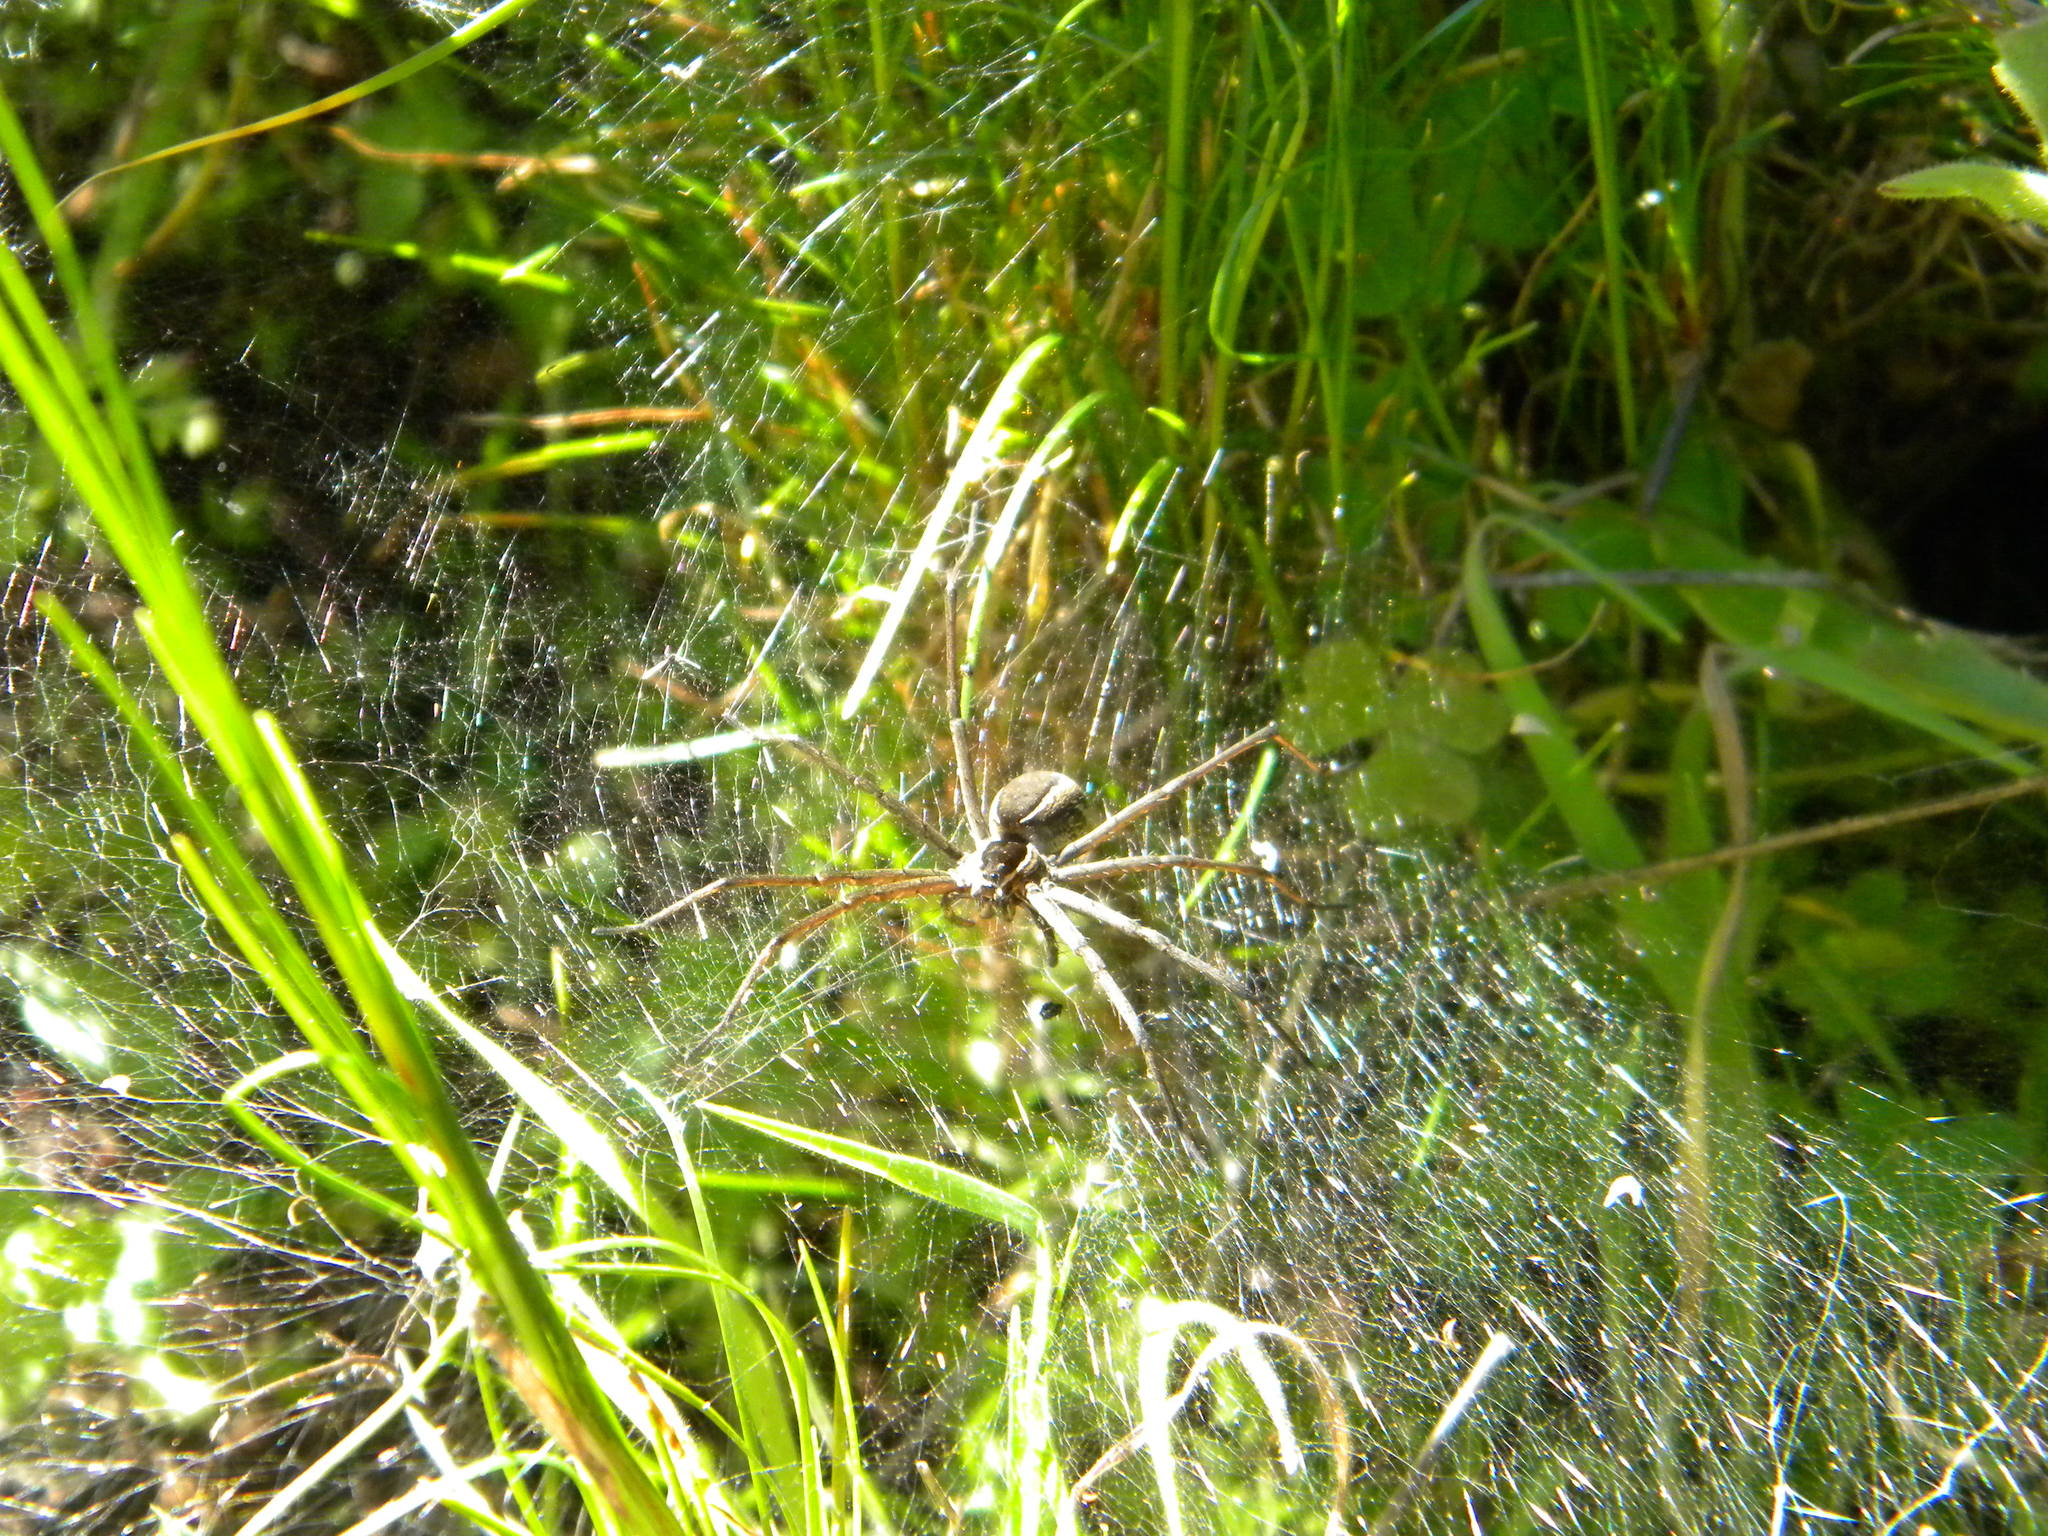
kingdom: Animalia
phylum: Arthropoda
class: Arachnida
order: Araneae
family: Pisauridae
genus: Euprosthenopsis
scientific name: Euprosthenopsis pulchella
